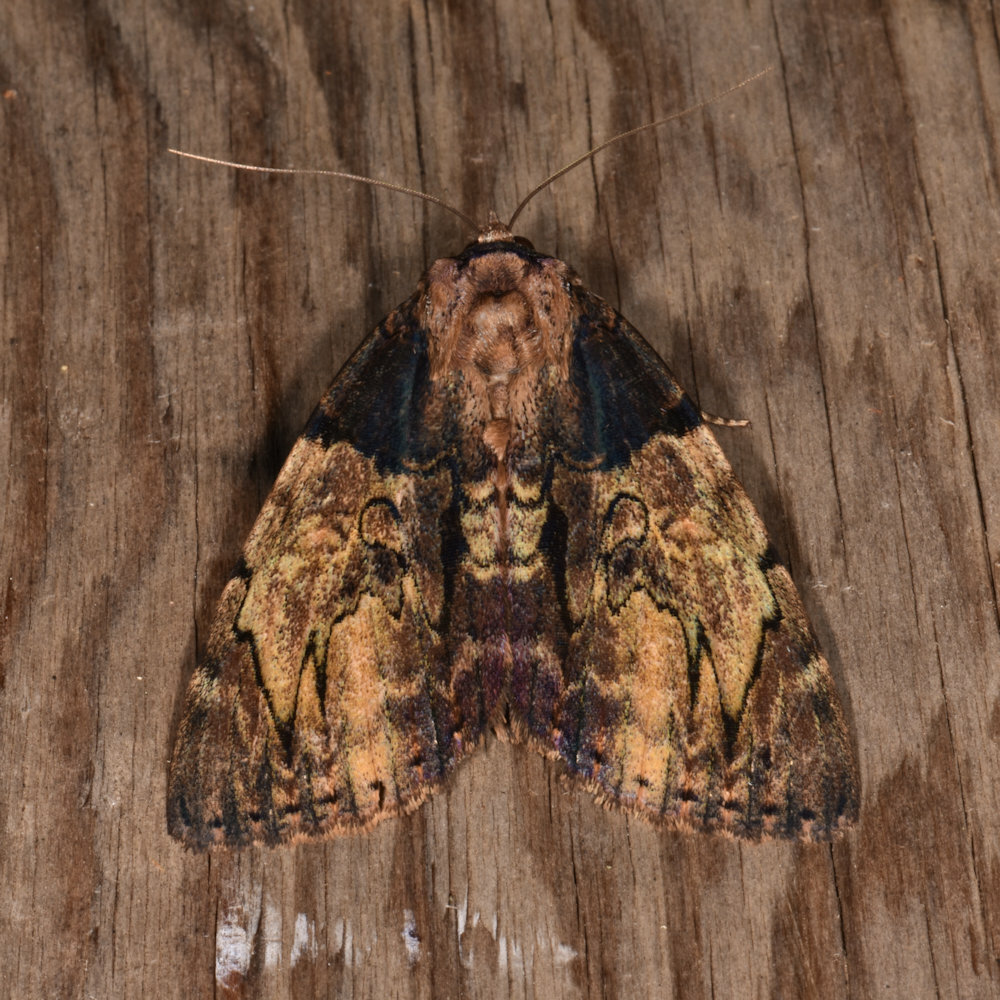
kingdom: Animalia
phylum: Arthropoda
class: Insecta
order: Lepidoptera
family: Erebidae
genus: Catocala
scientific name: Catocala nebulosa
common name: Clouded underwing
